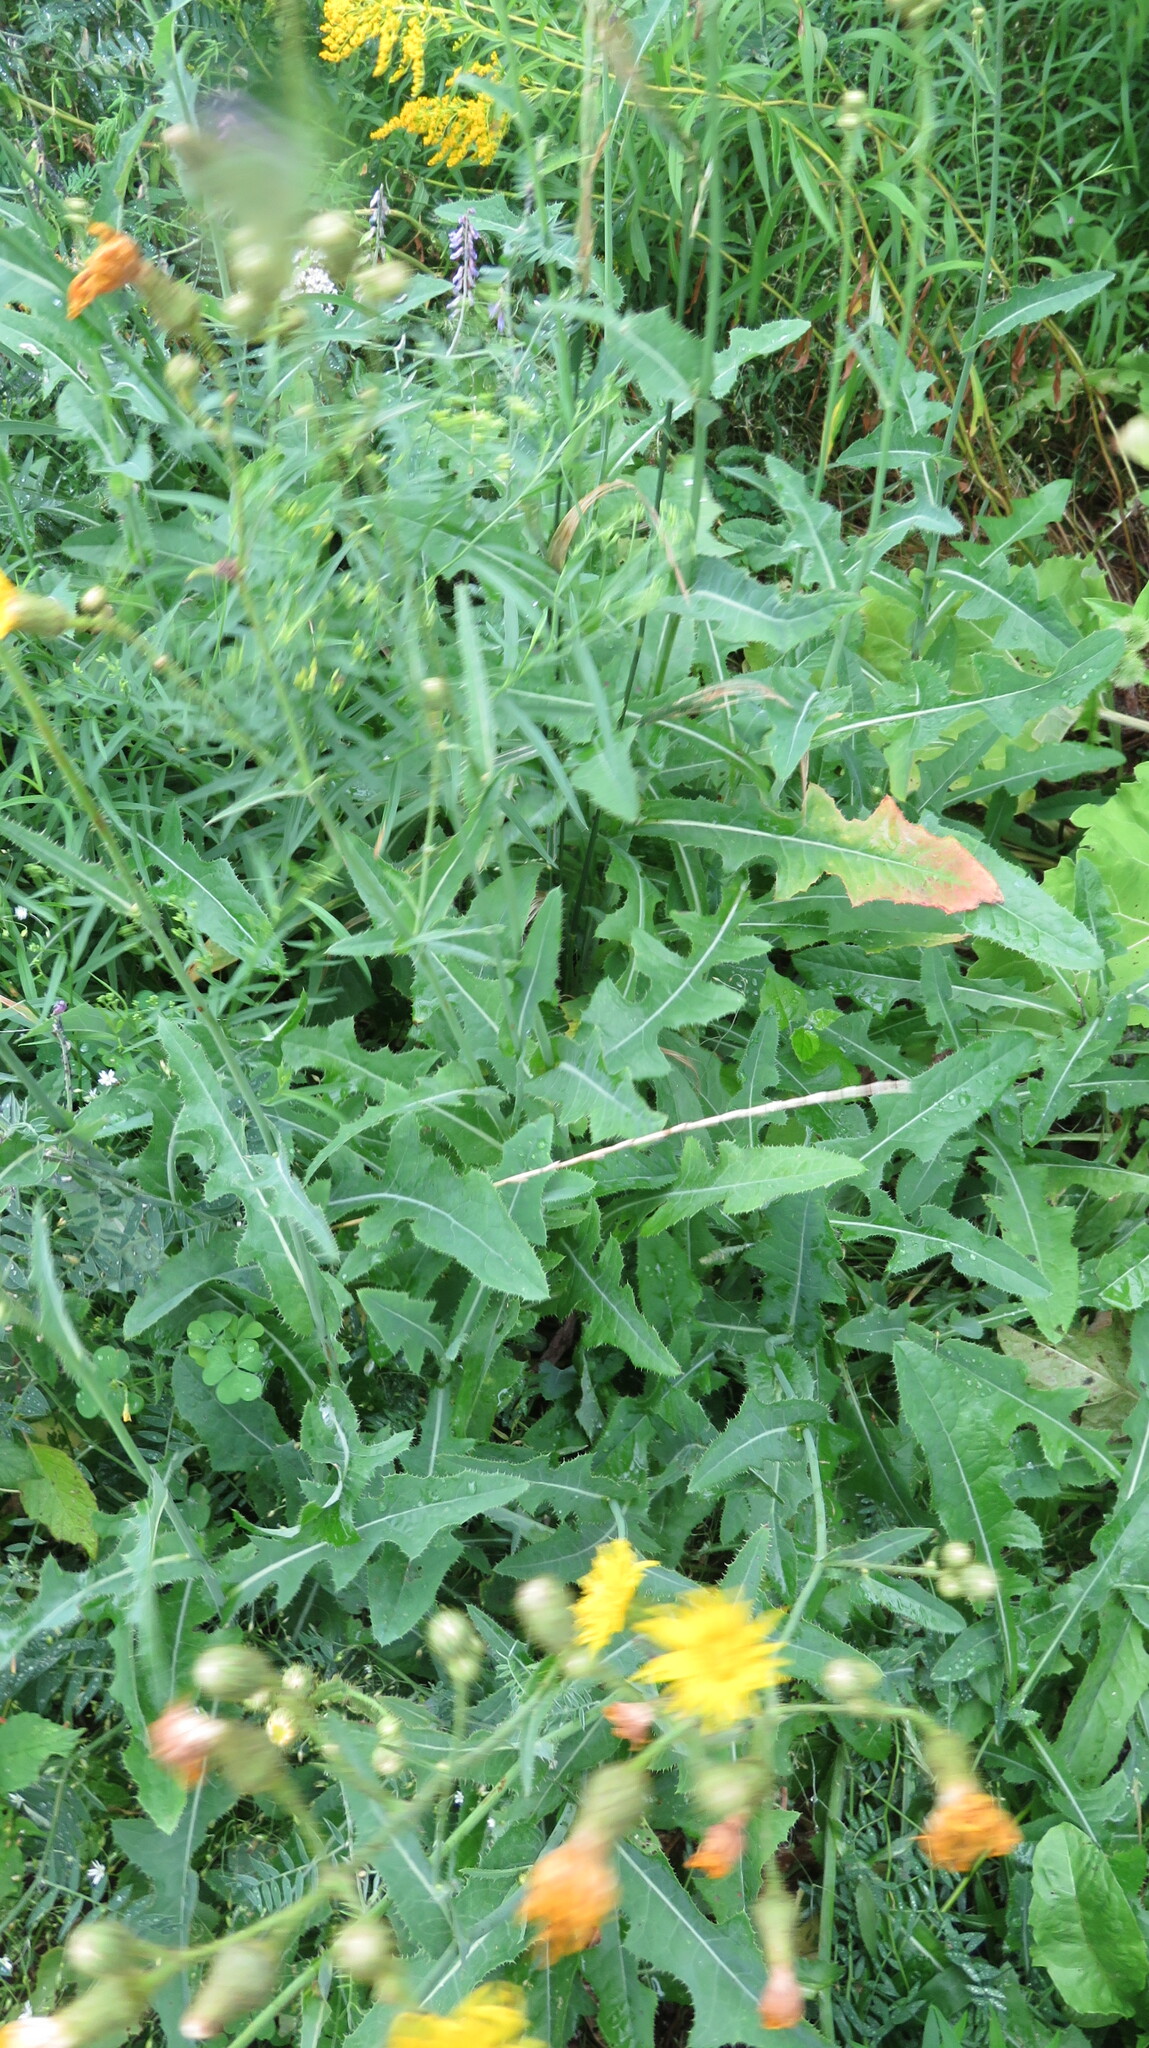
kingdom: Plantae
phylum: Tracheophyta
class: Magnoliopsida
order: Asterales
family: Asteraceae
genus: Sonchus
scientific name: Sonchus arvensis
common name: Perennial sow-thistle
